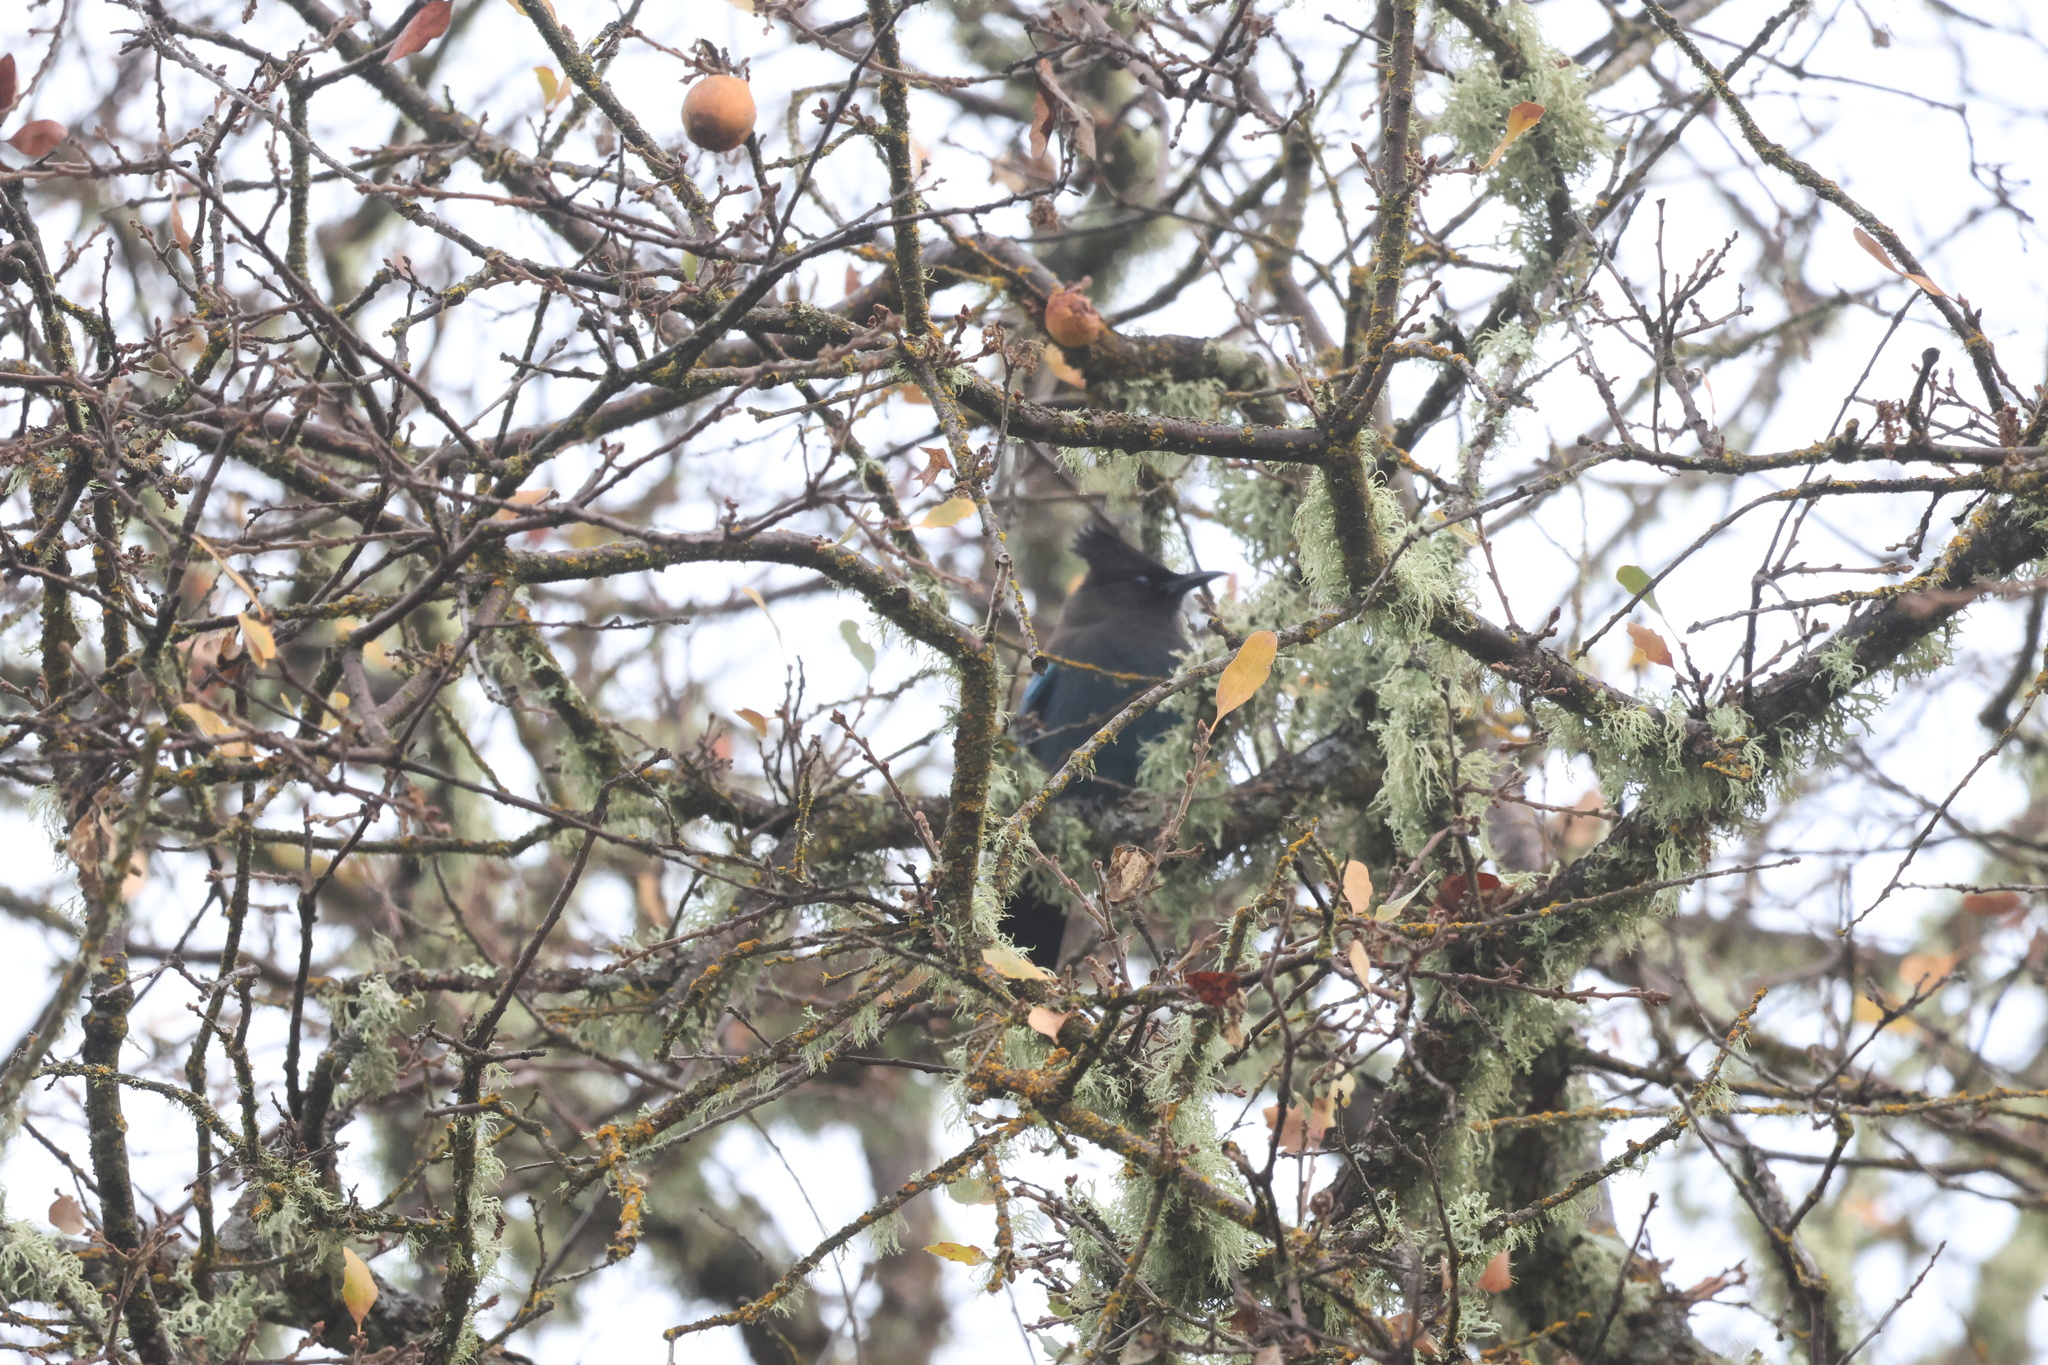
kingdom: Animalia
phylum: Chordata
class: Aves
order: Passeriformes
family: Corvidae
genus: Cyanocitta
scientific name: Cyanocitta stelleri
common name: Steller's jay
